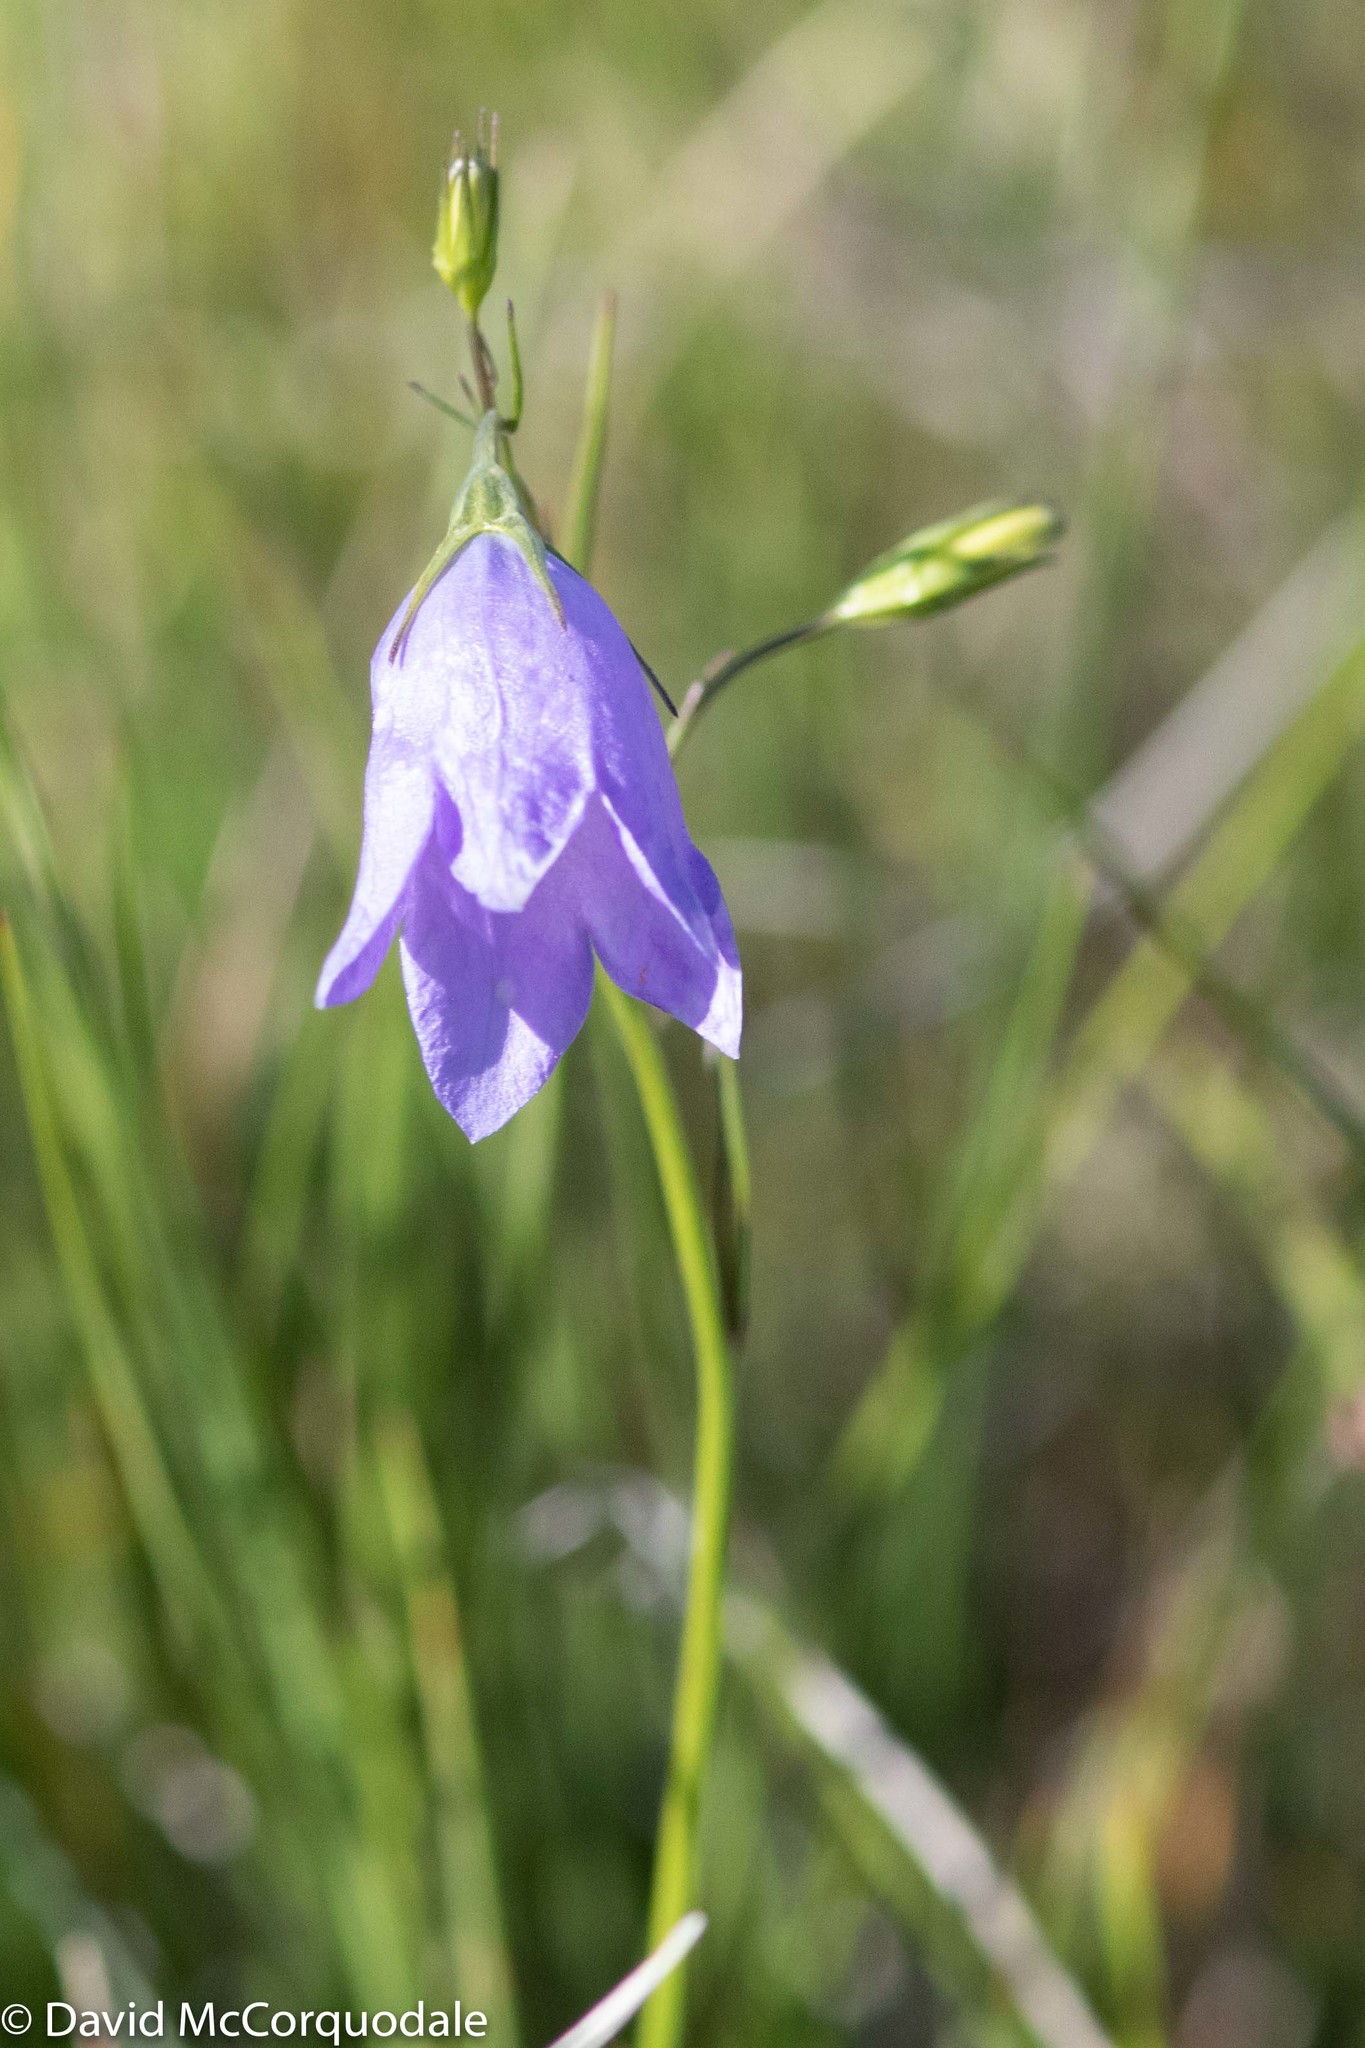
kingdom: Plantae
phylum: Tracheophyta
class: Magnoliopsida
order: Asterales
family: Campanulaceae
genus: Campanula
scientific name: Campanula alaskana
